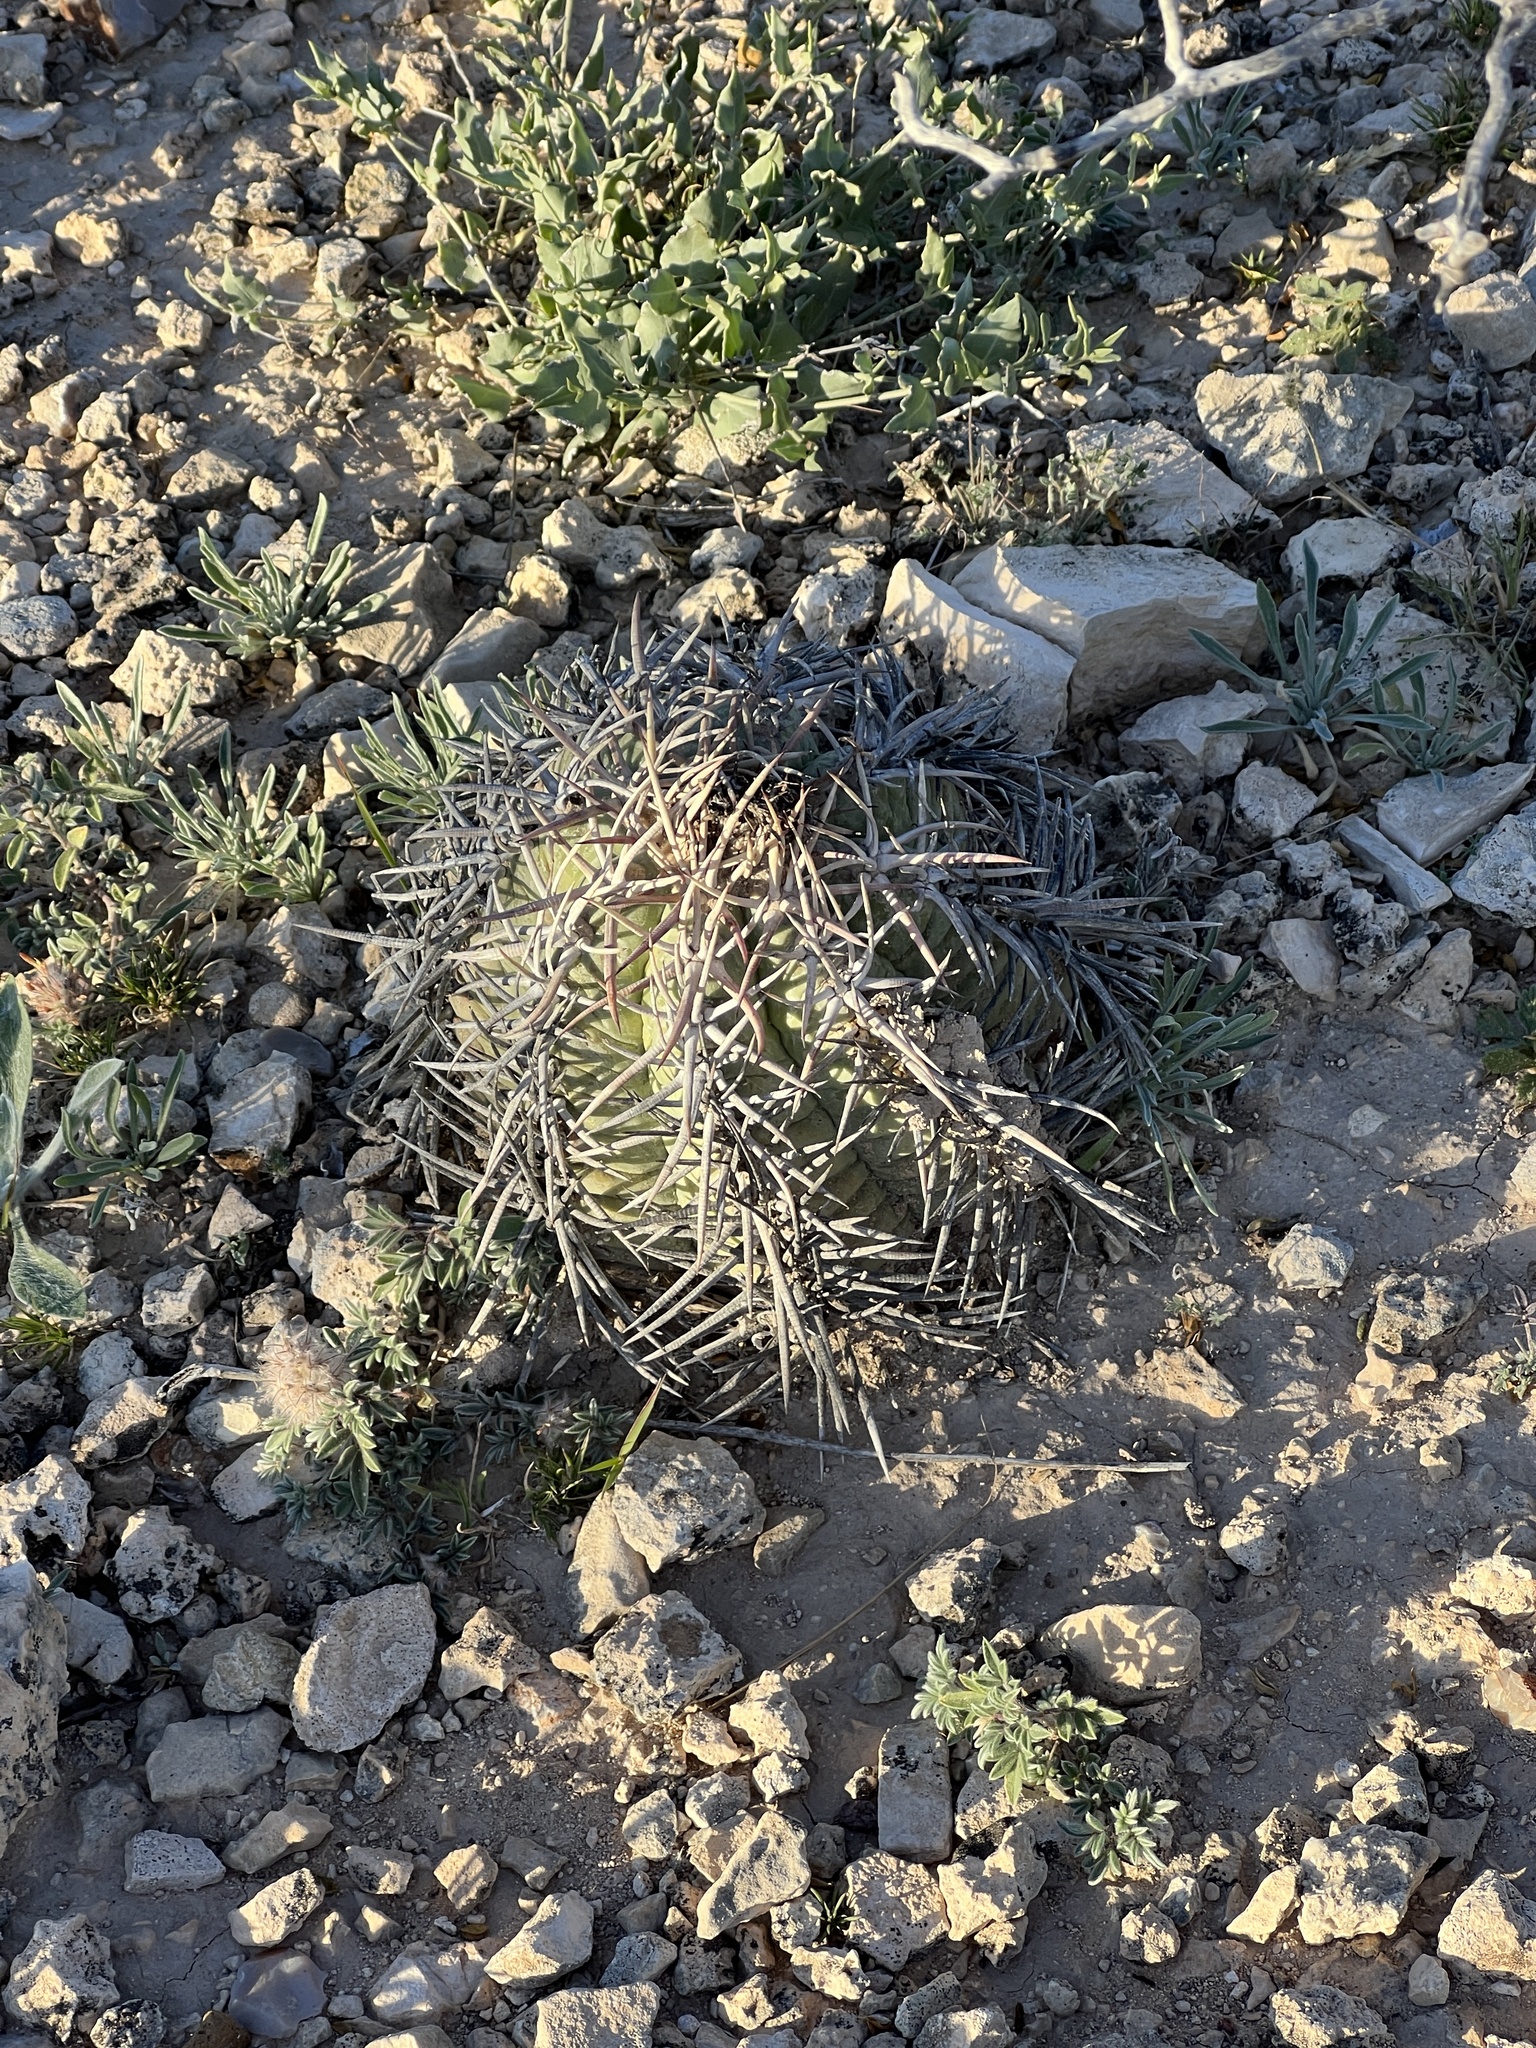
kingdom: Plantae
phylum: Tracheophyta
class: Magnoliopsida
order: Caryophyllales
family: Cactaceae
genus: Echinocactus
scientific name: Echinocactus horizonthalonius
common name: Devilshead
